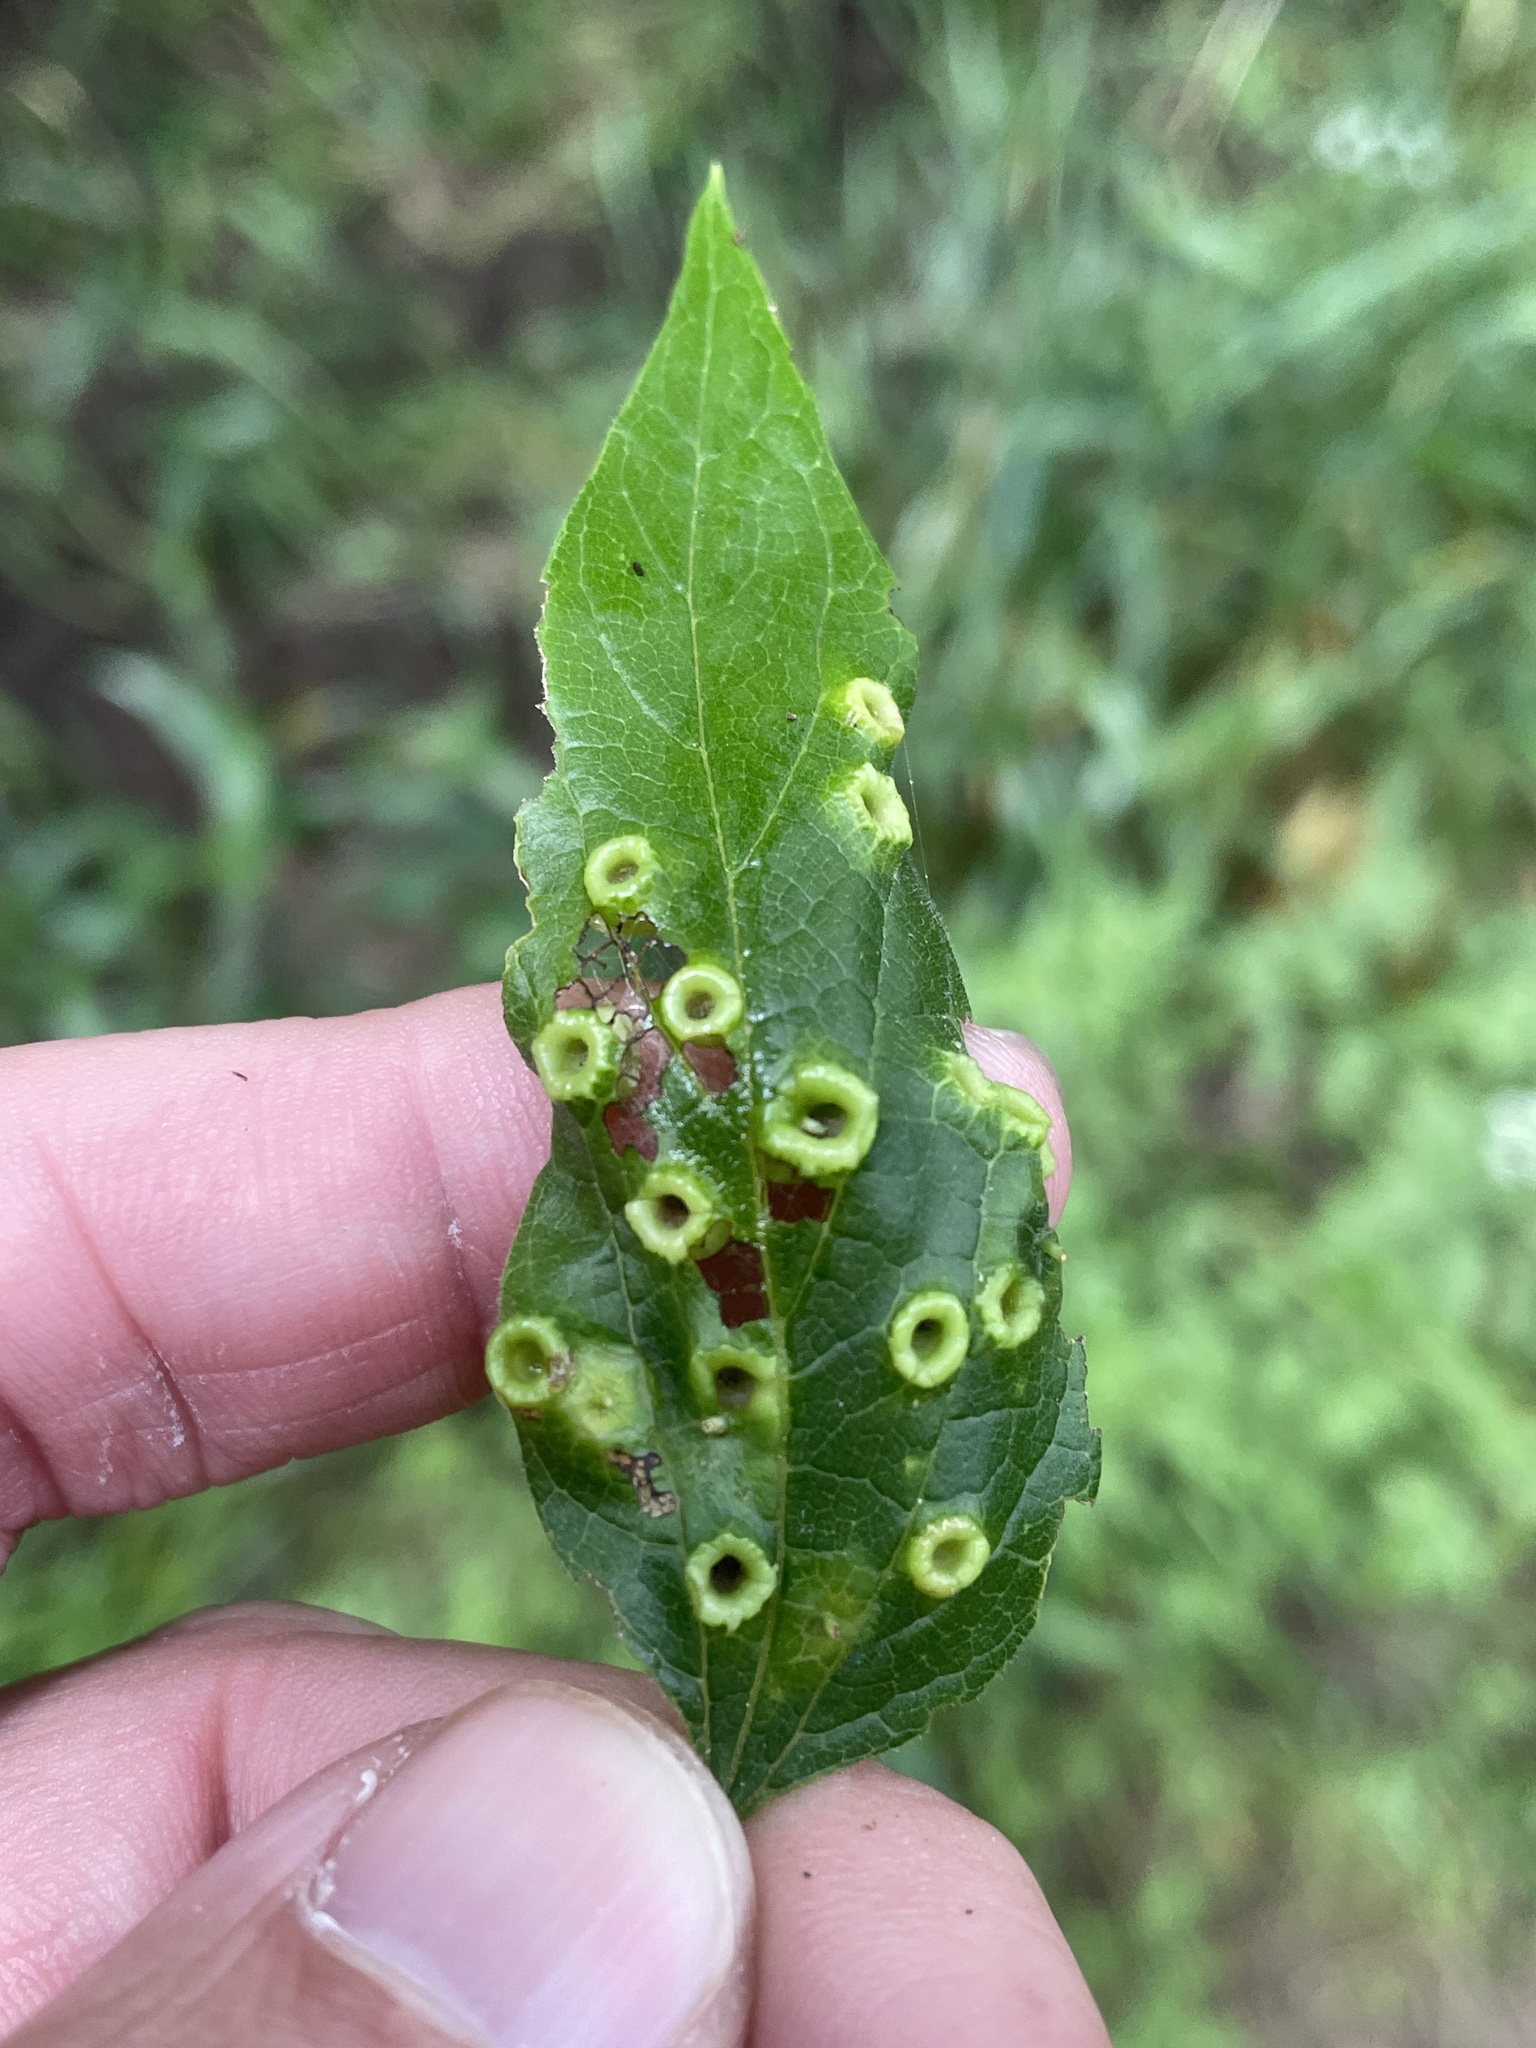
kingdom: Animalia
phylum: Arthropoda
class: Insecta
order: Hemiptera
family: Aphalaridae
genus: Pachypsylla
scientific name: Pachypsylla celtidismamma
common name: Hackberry nipplegall psyllid
